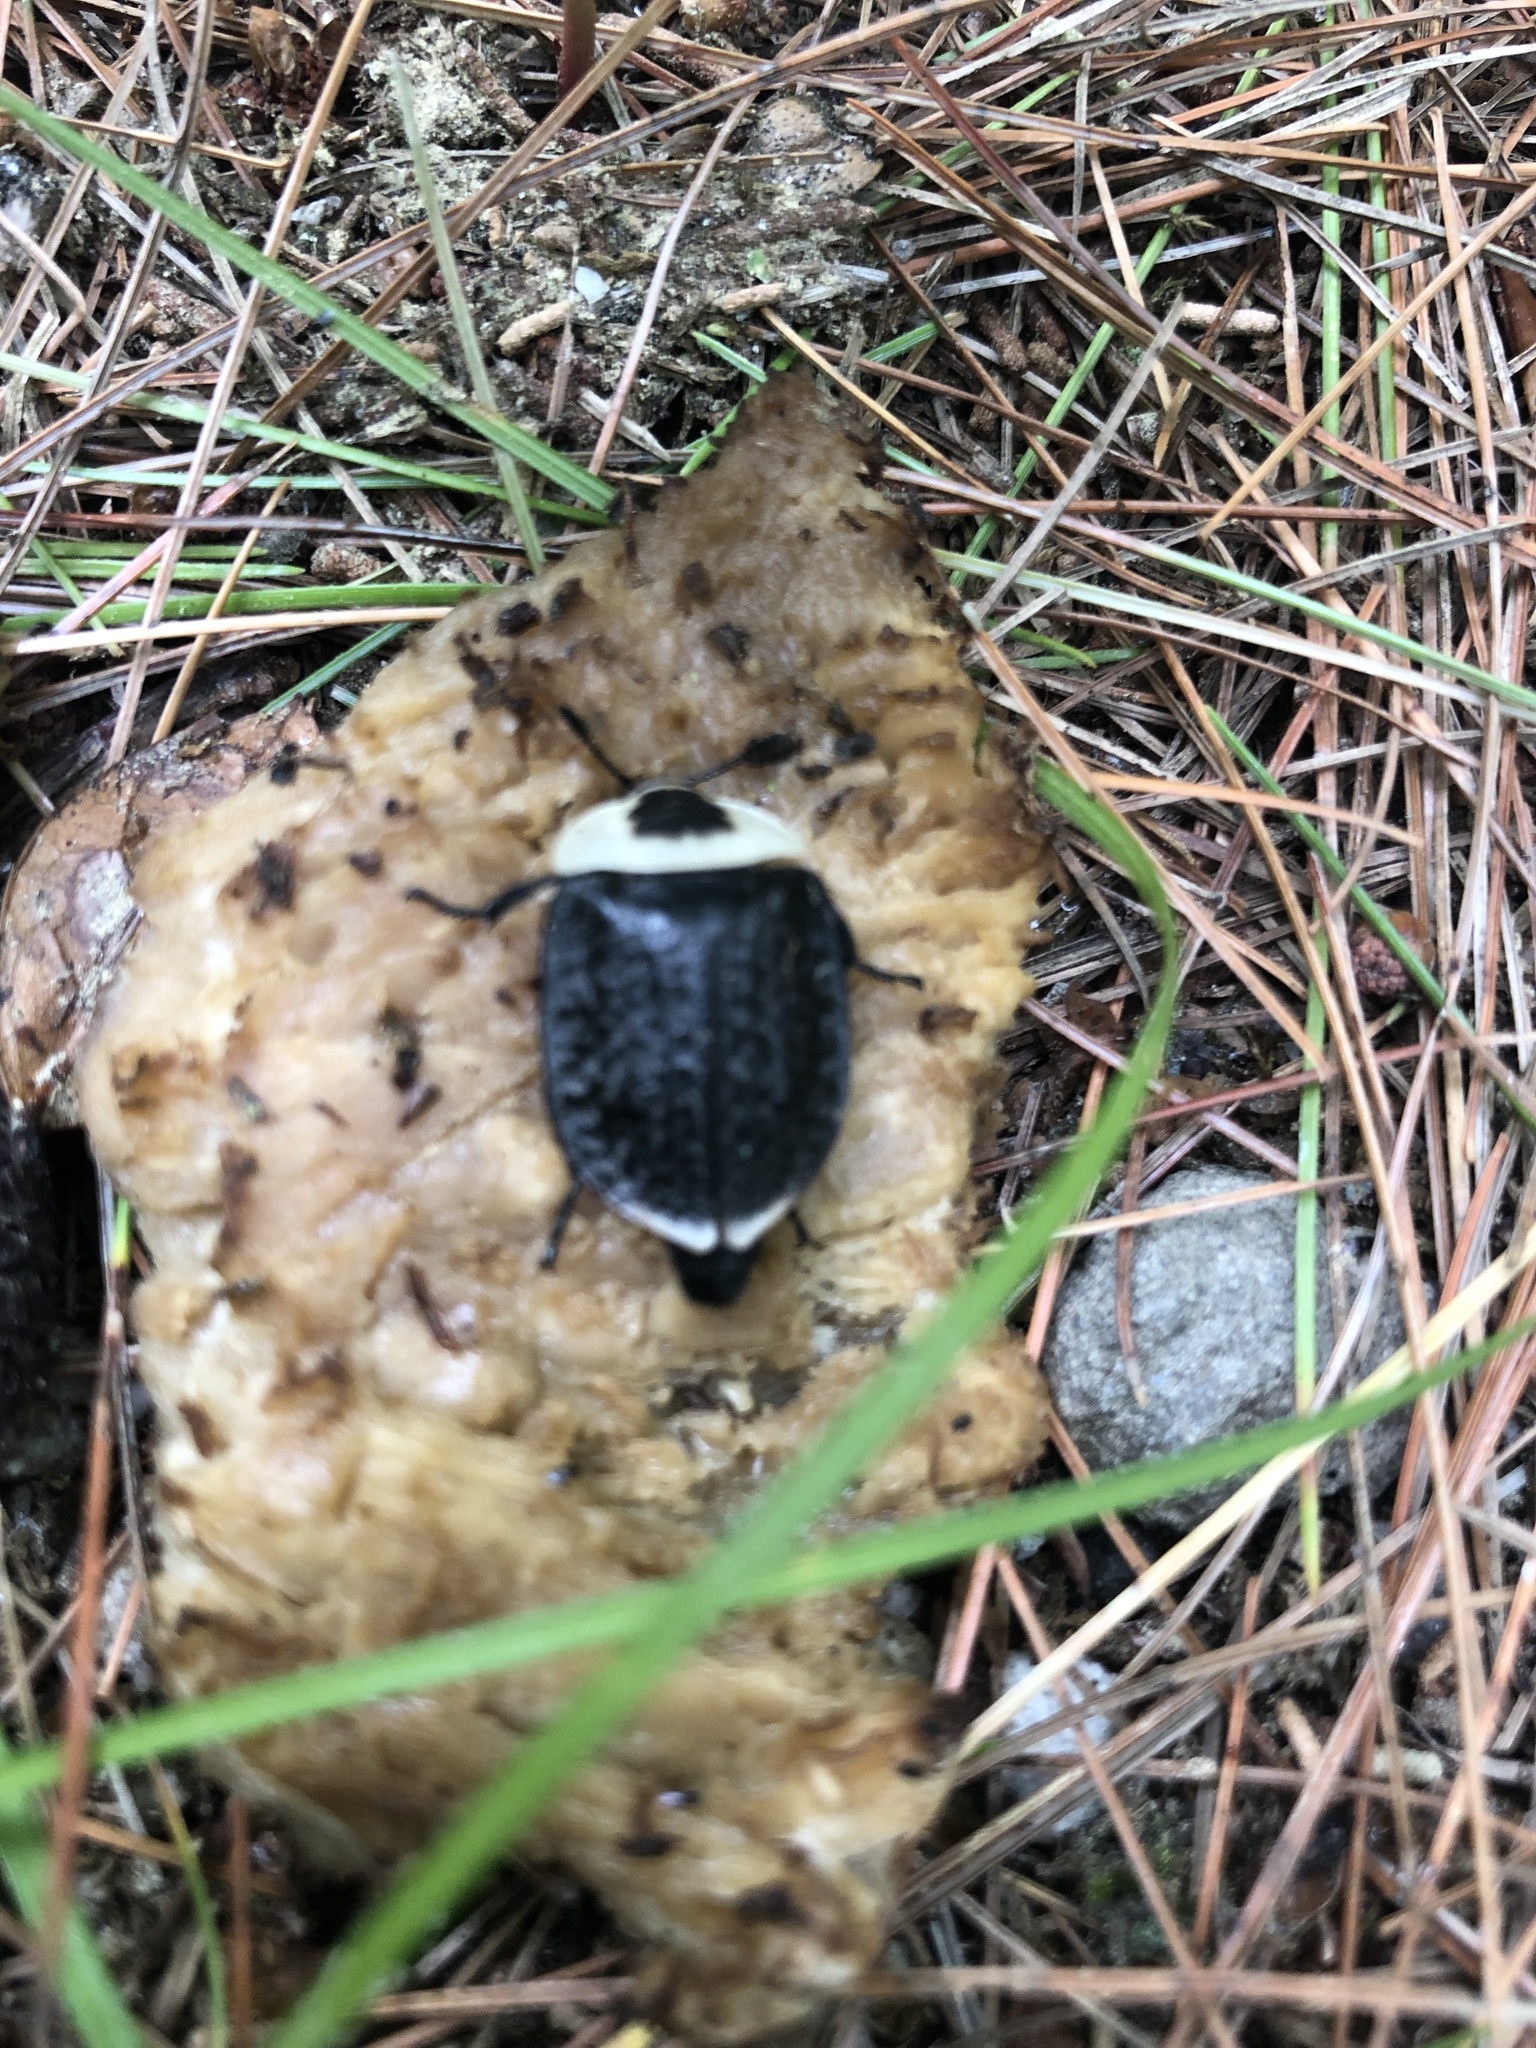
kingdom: Animalia
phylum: Arthropoda
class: Insecta
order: Coleoptera
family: Staphylinidae
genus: Necrophila
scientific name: Necrophila americana
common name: American carrion beetle
